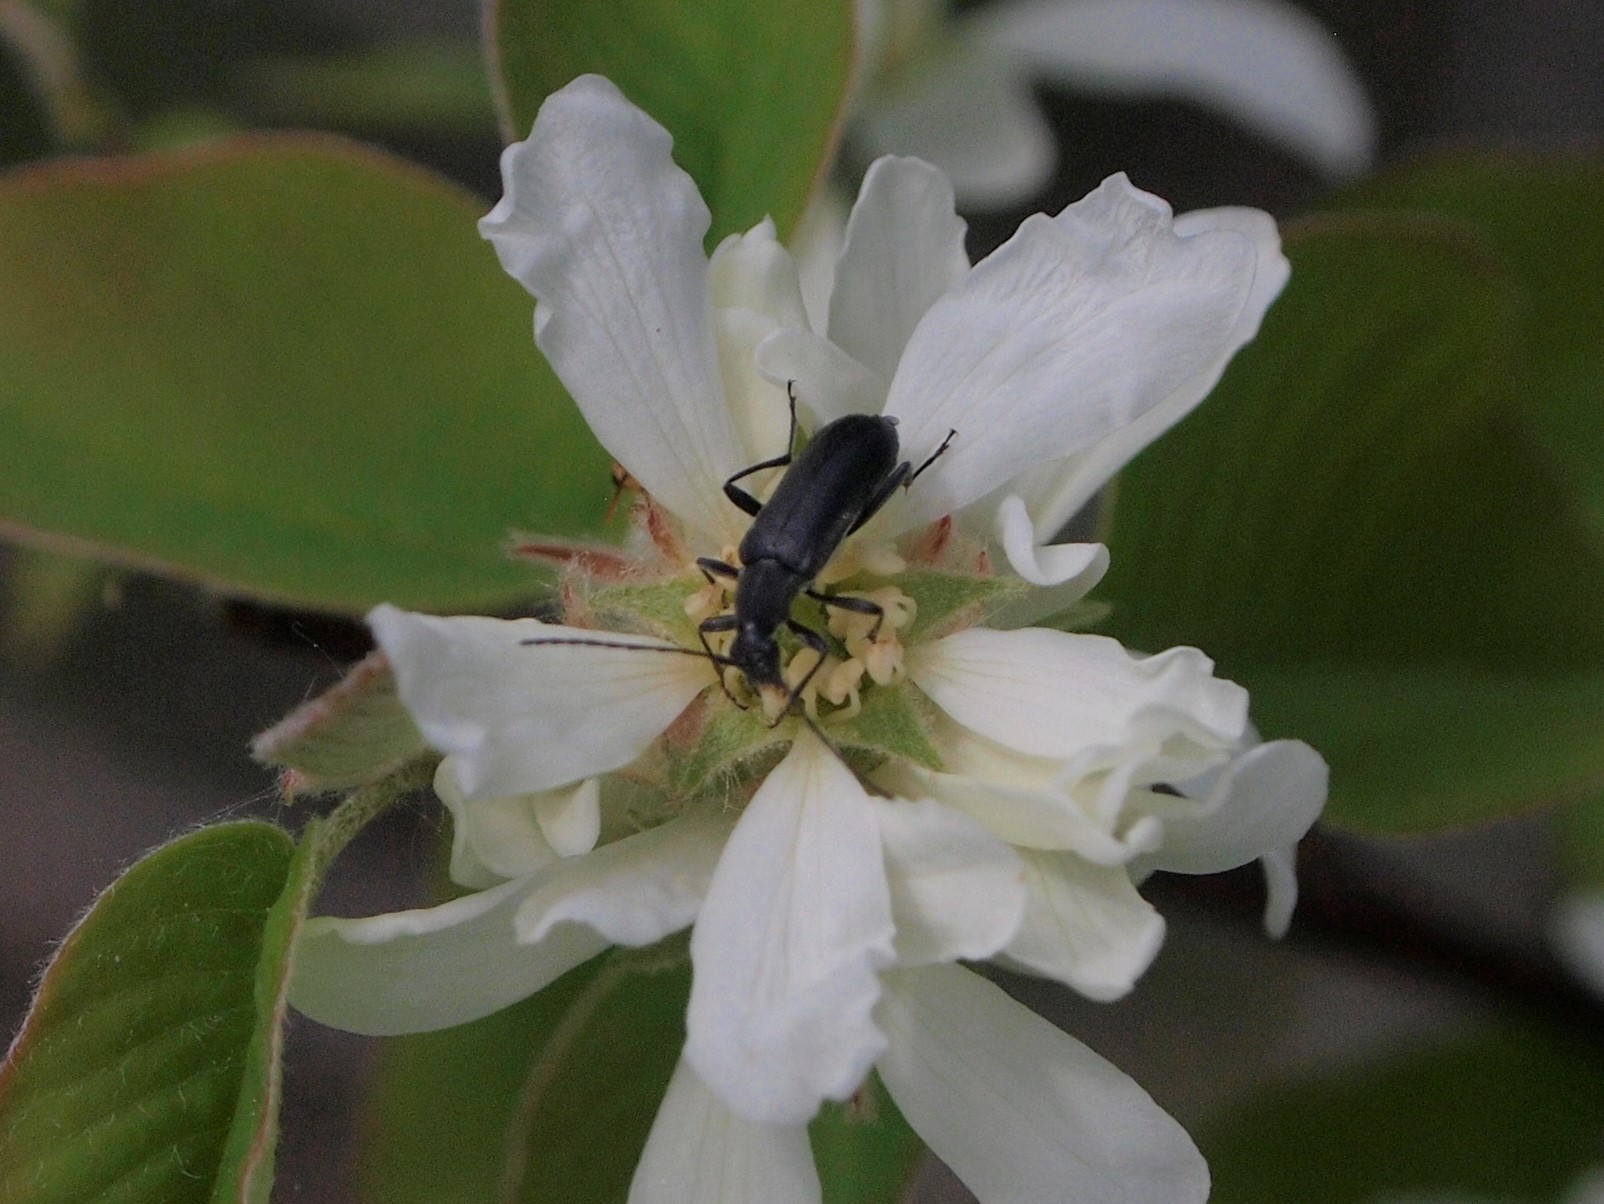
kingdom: Animalia
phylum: Arthropoda
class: Insecta
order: Coleoptera
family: Cerambycidae
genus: Grammoptera
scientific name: Grammoptera subargentata
